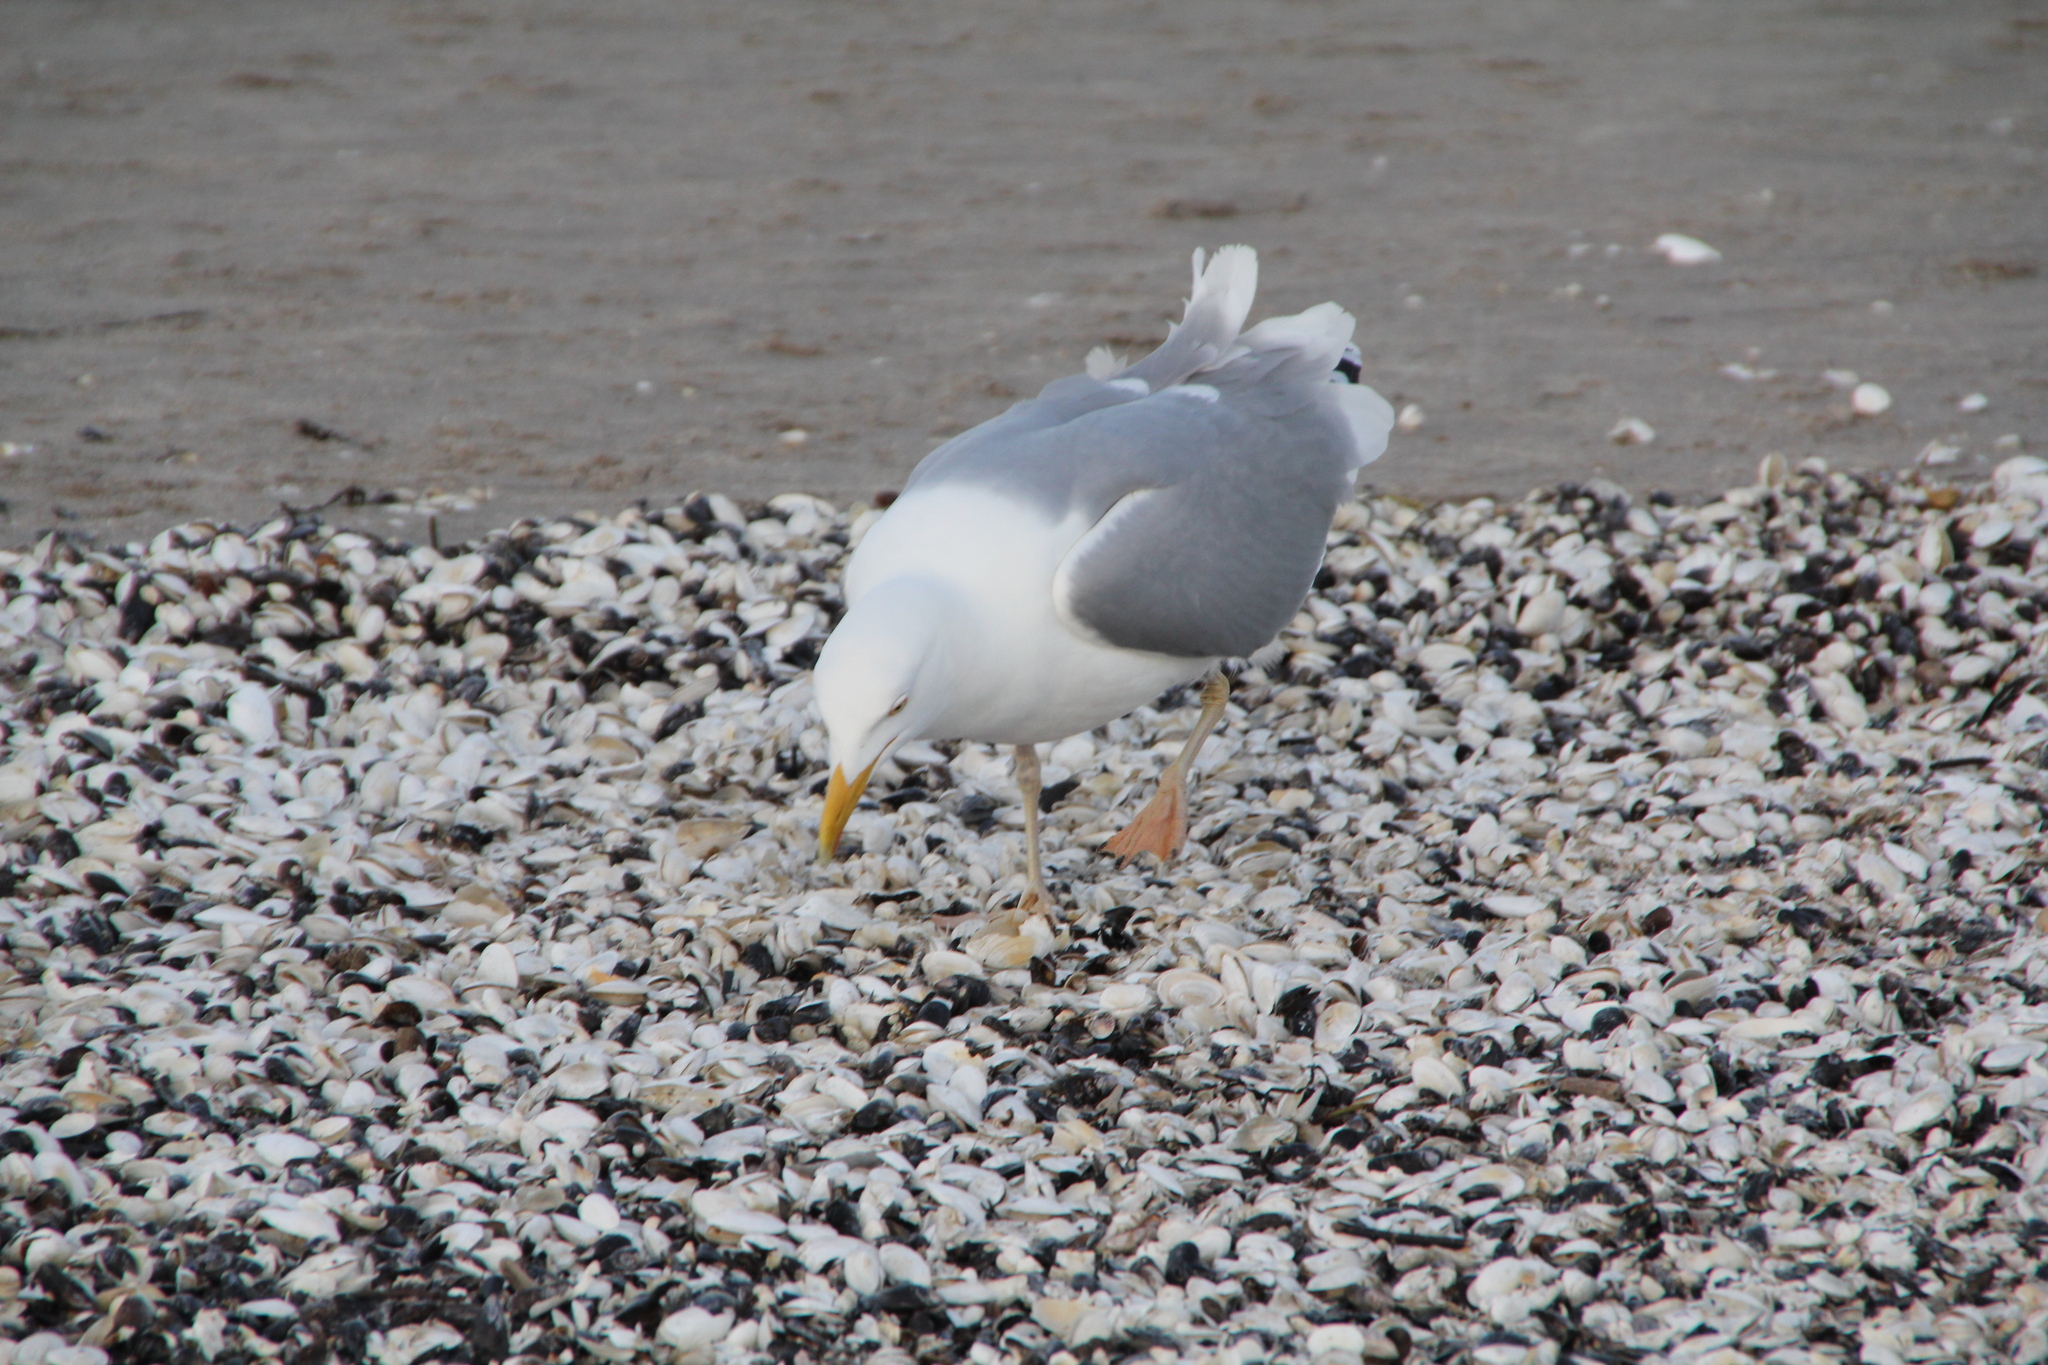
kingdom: Animalia
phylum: Chordata
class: Aves
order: Charadriiformes
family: Laridae
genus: Larus
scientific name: Larus argentatus
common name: Herring gull
